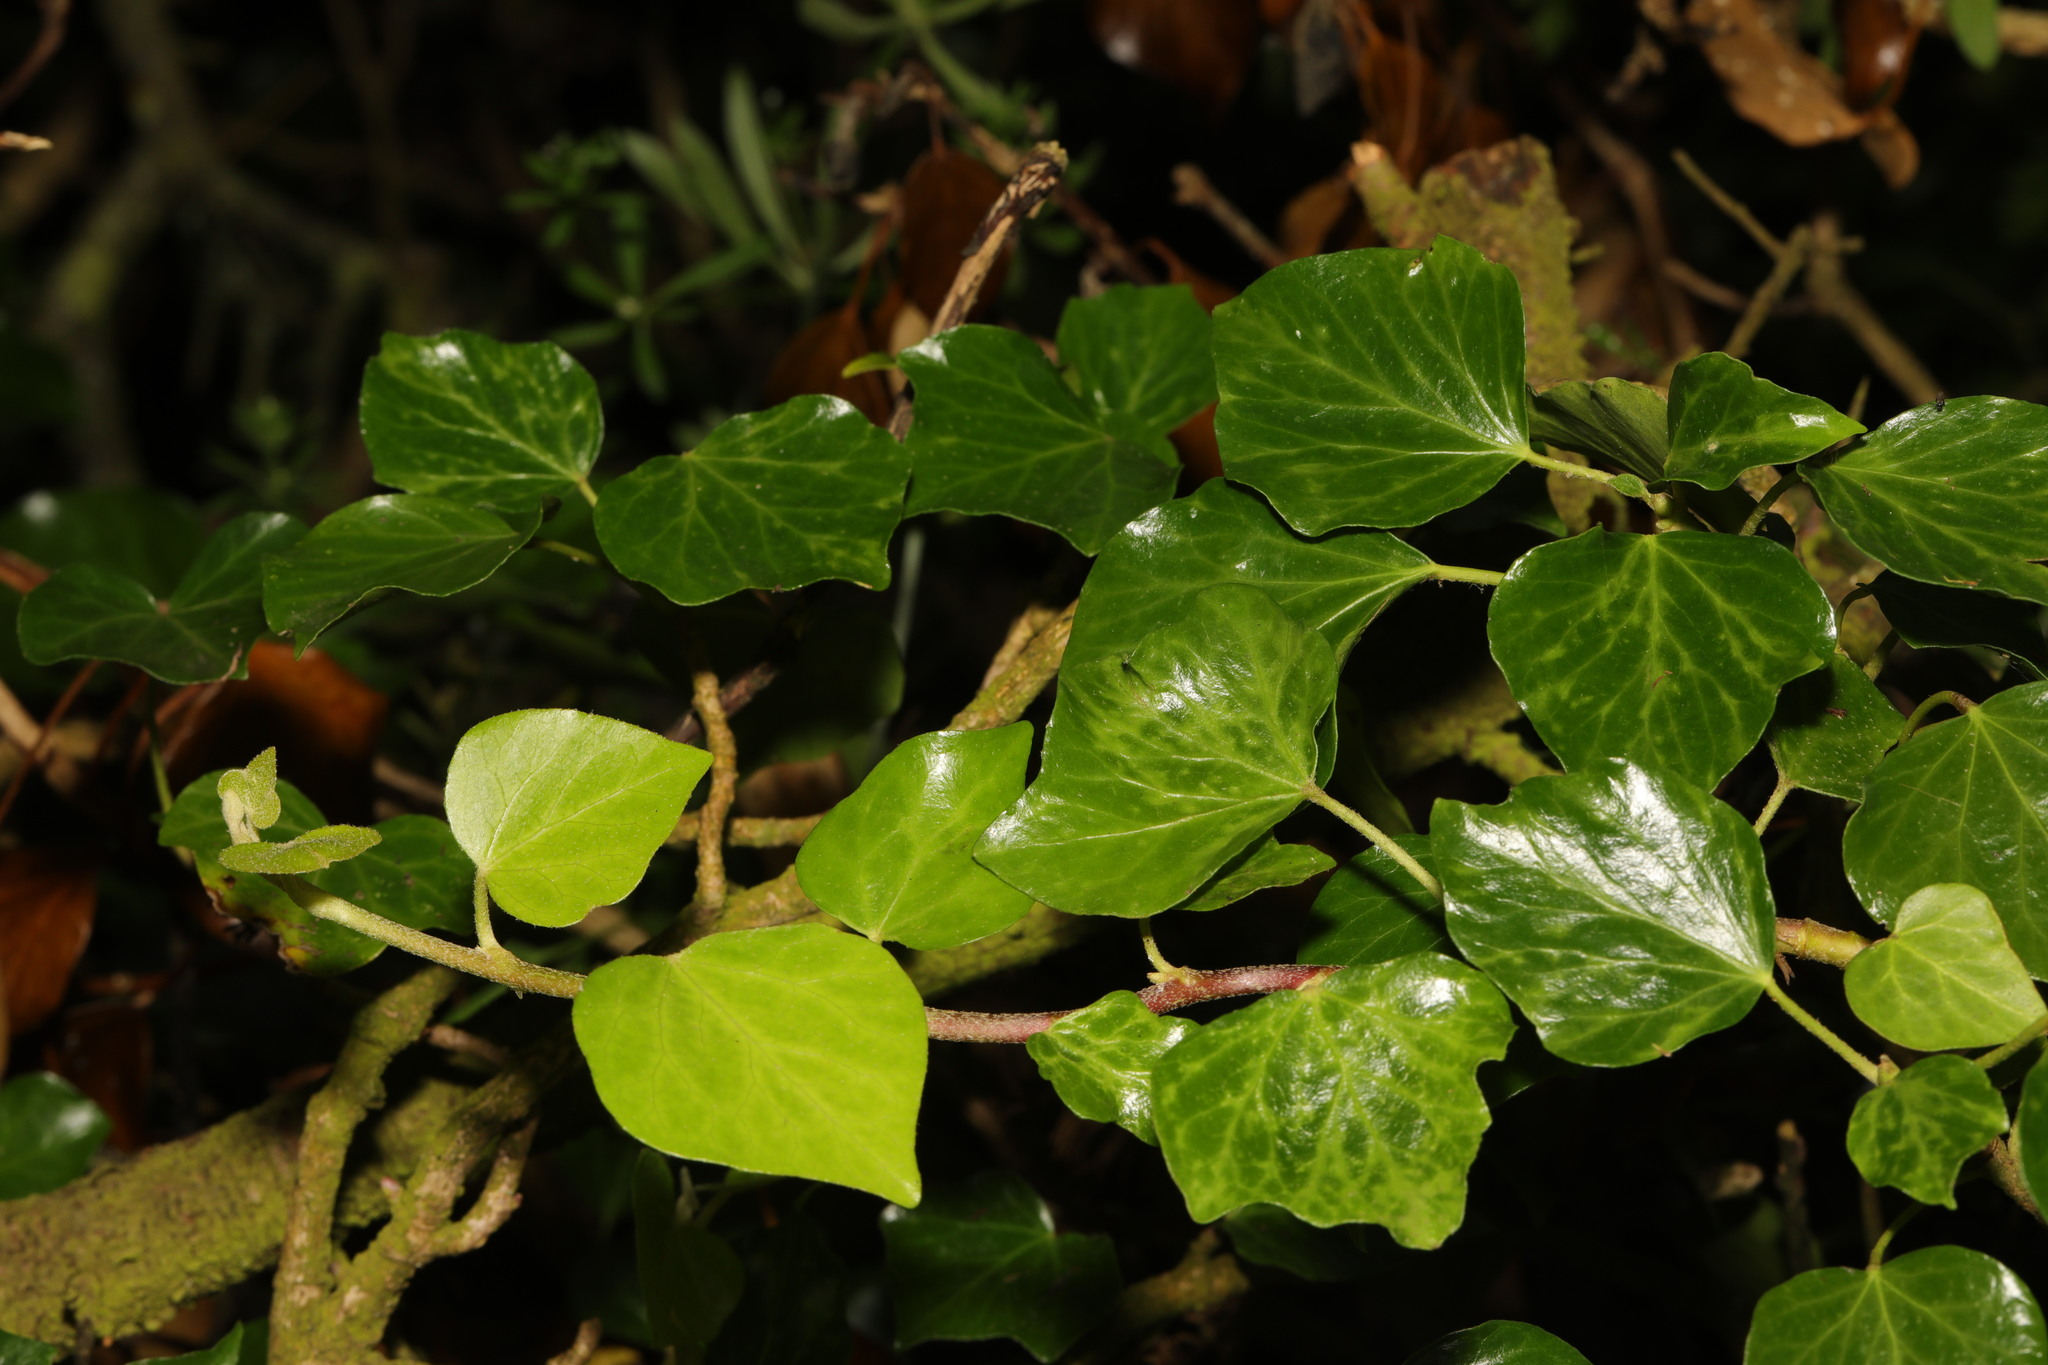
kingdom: Plantae
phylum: Tracheophyta
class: Magnoliopsida
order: Apiales
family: Araliaceae
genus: Hedera
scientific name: Hedera helix
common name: Ivy
